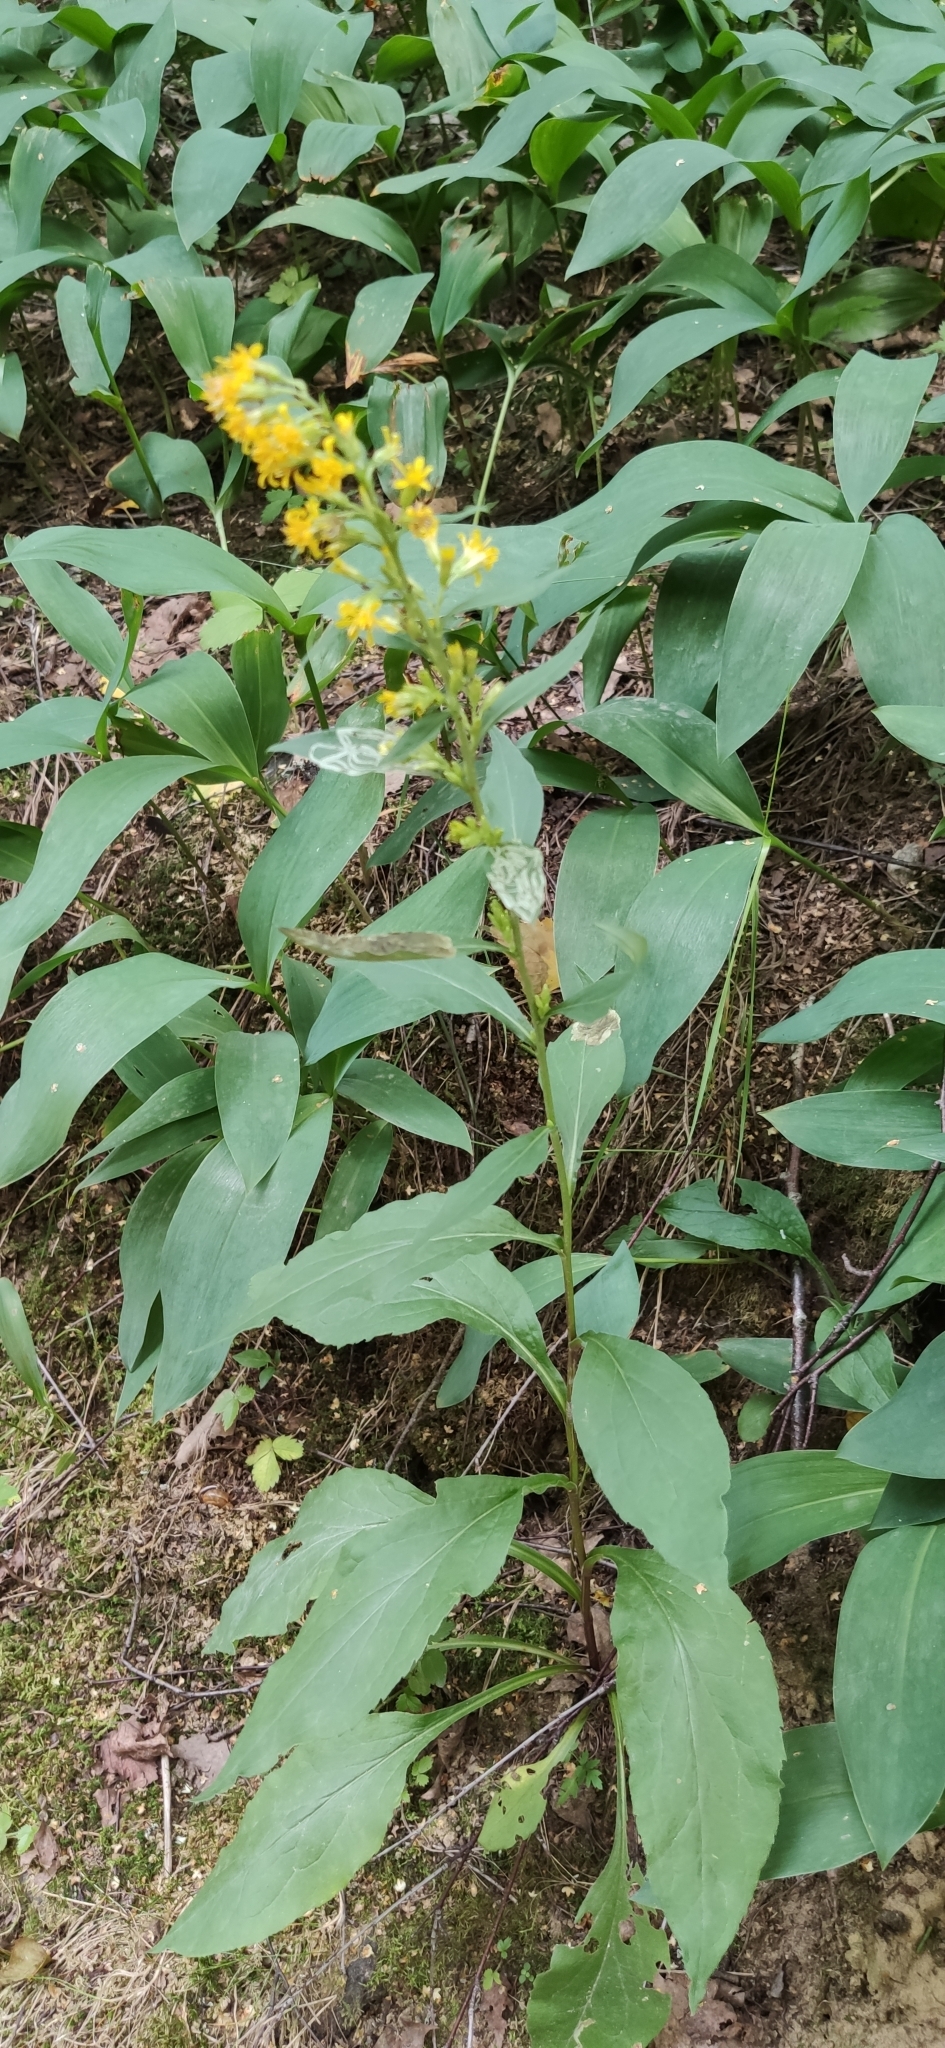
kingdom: Plantae
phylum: Tracheophyta
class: Magnoliopsida
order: Asterales
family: Asteraceae
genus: Solidago
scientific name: Solidago virgaurea
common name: Goldenrod
